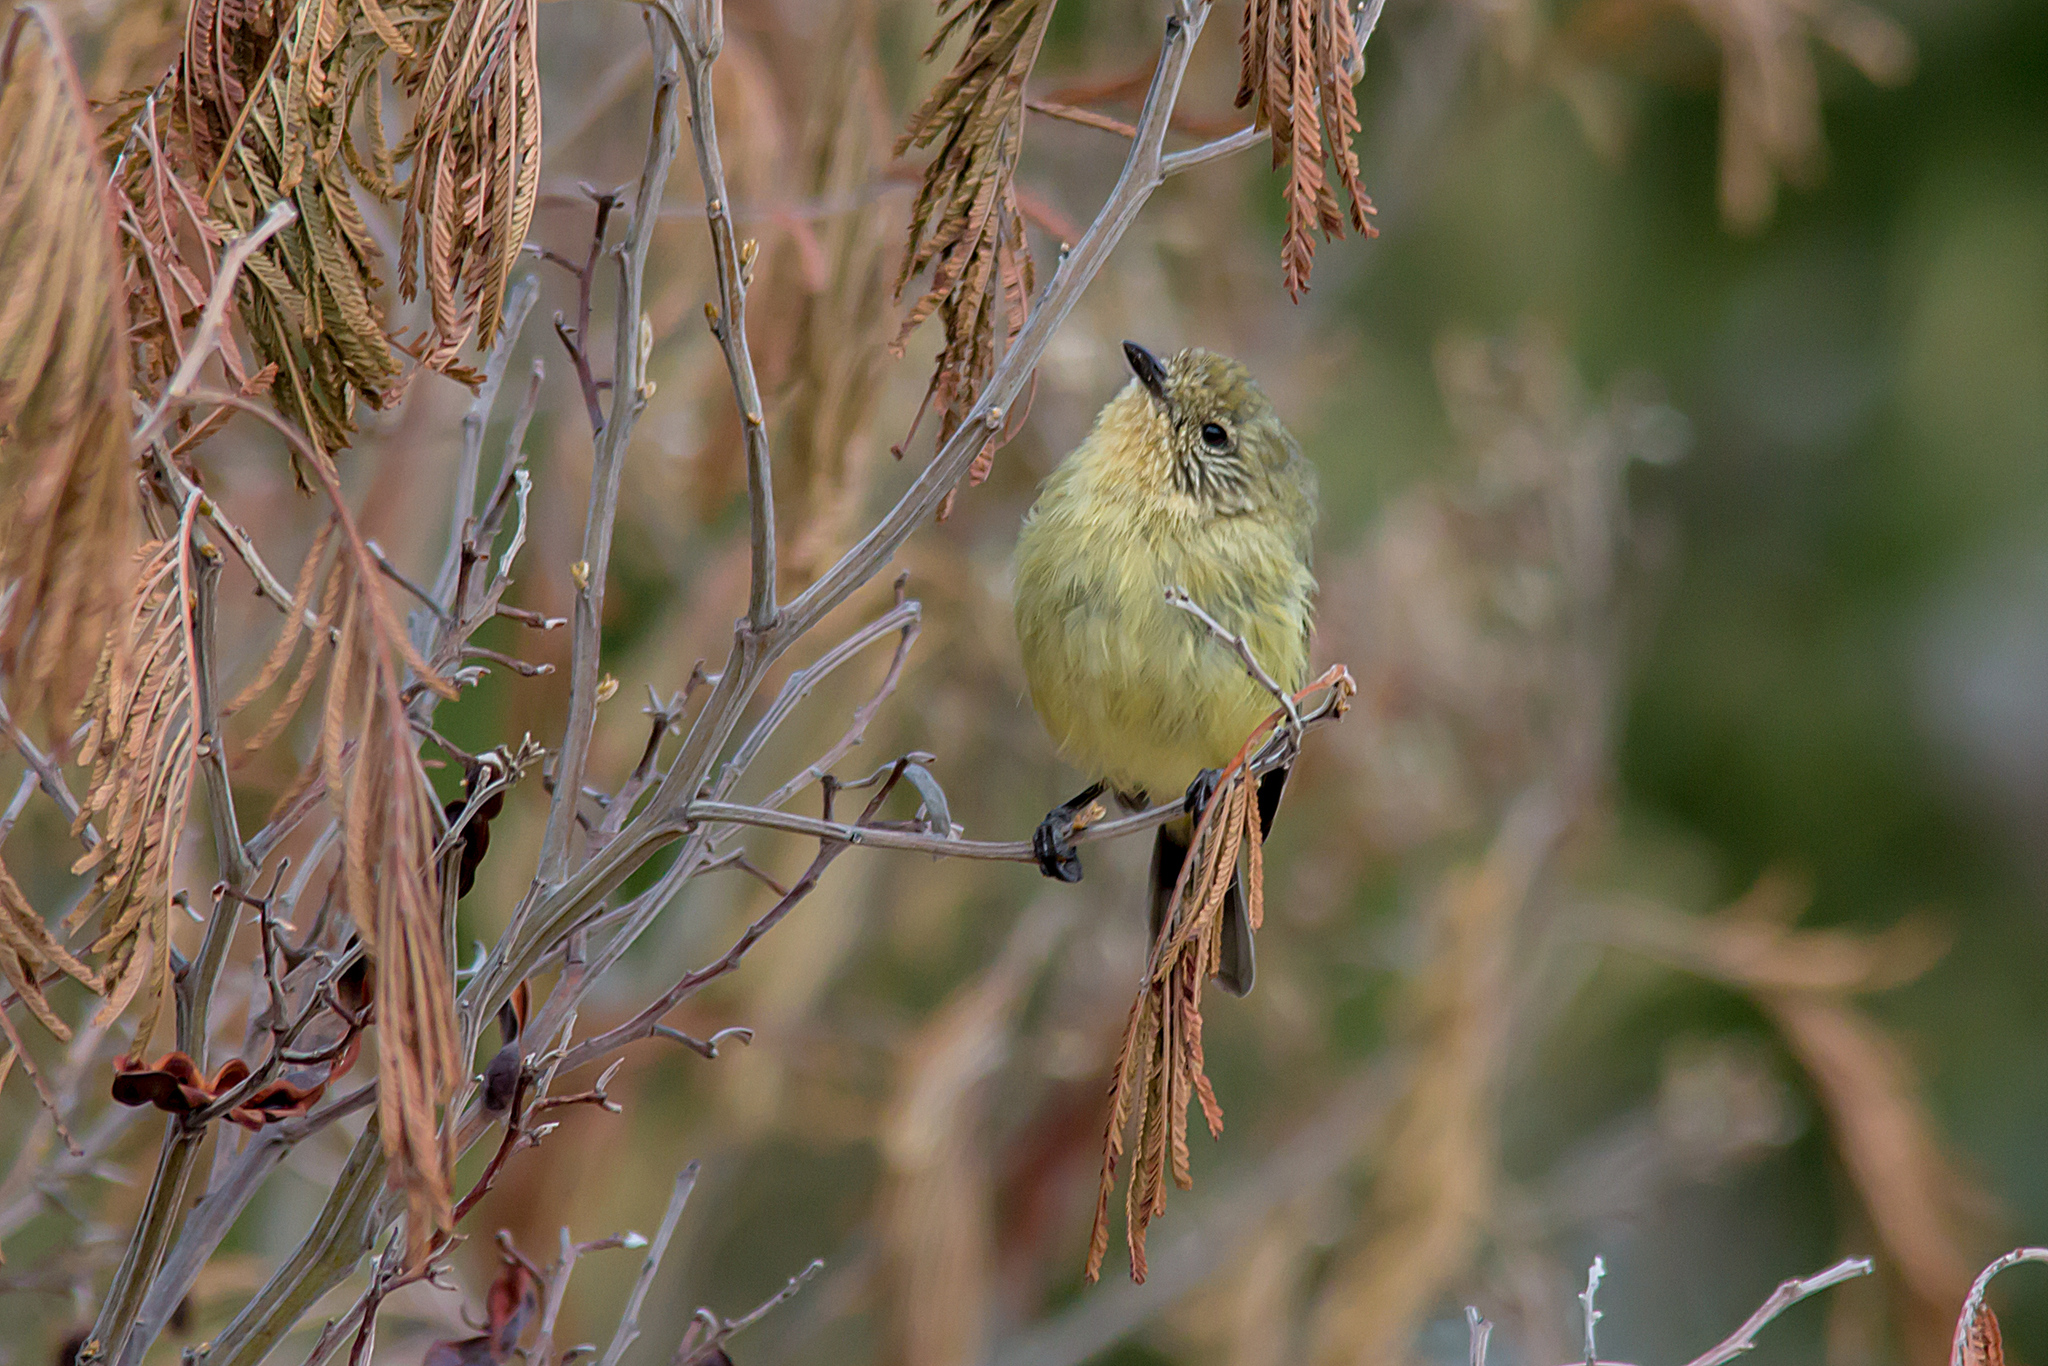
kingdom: Animalia
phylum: Chordata
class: Aves
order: Passeriformes
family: Acanthizidae
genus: Acanthiza
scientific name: Acanthiza nana
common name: Yellow thornbill
